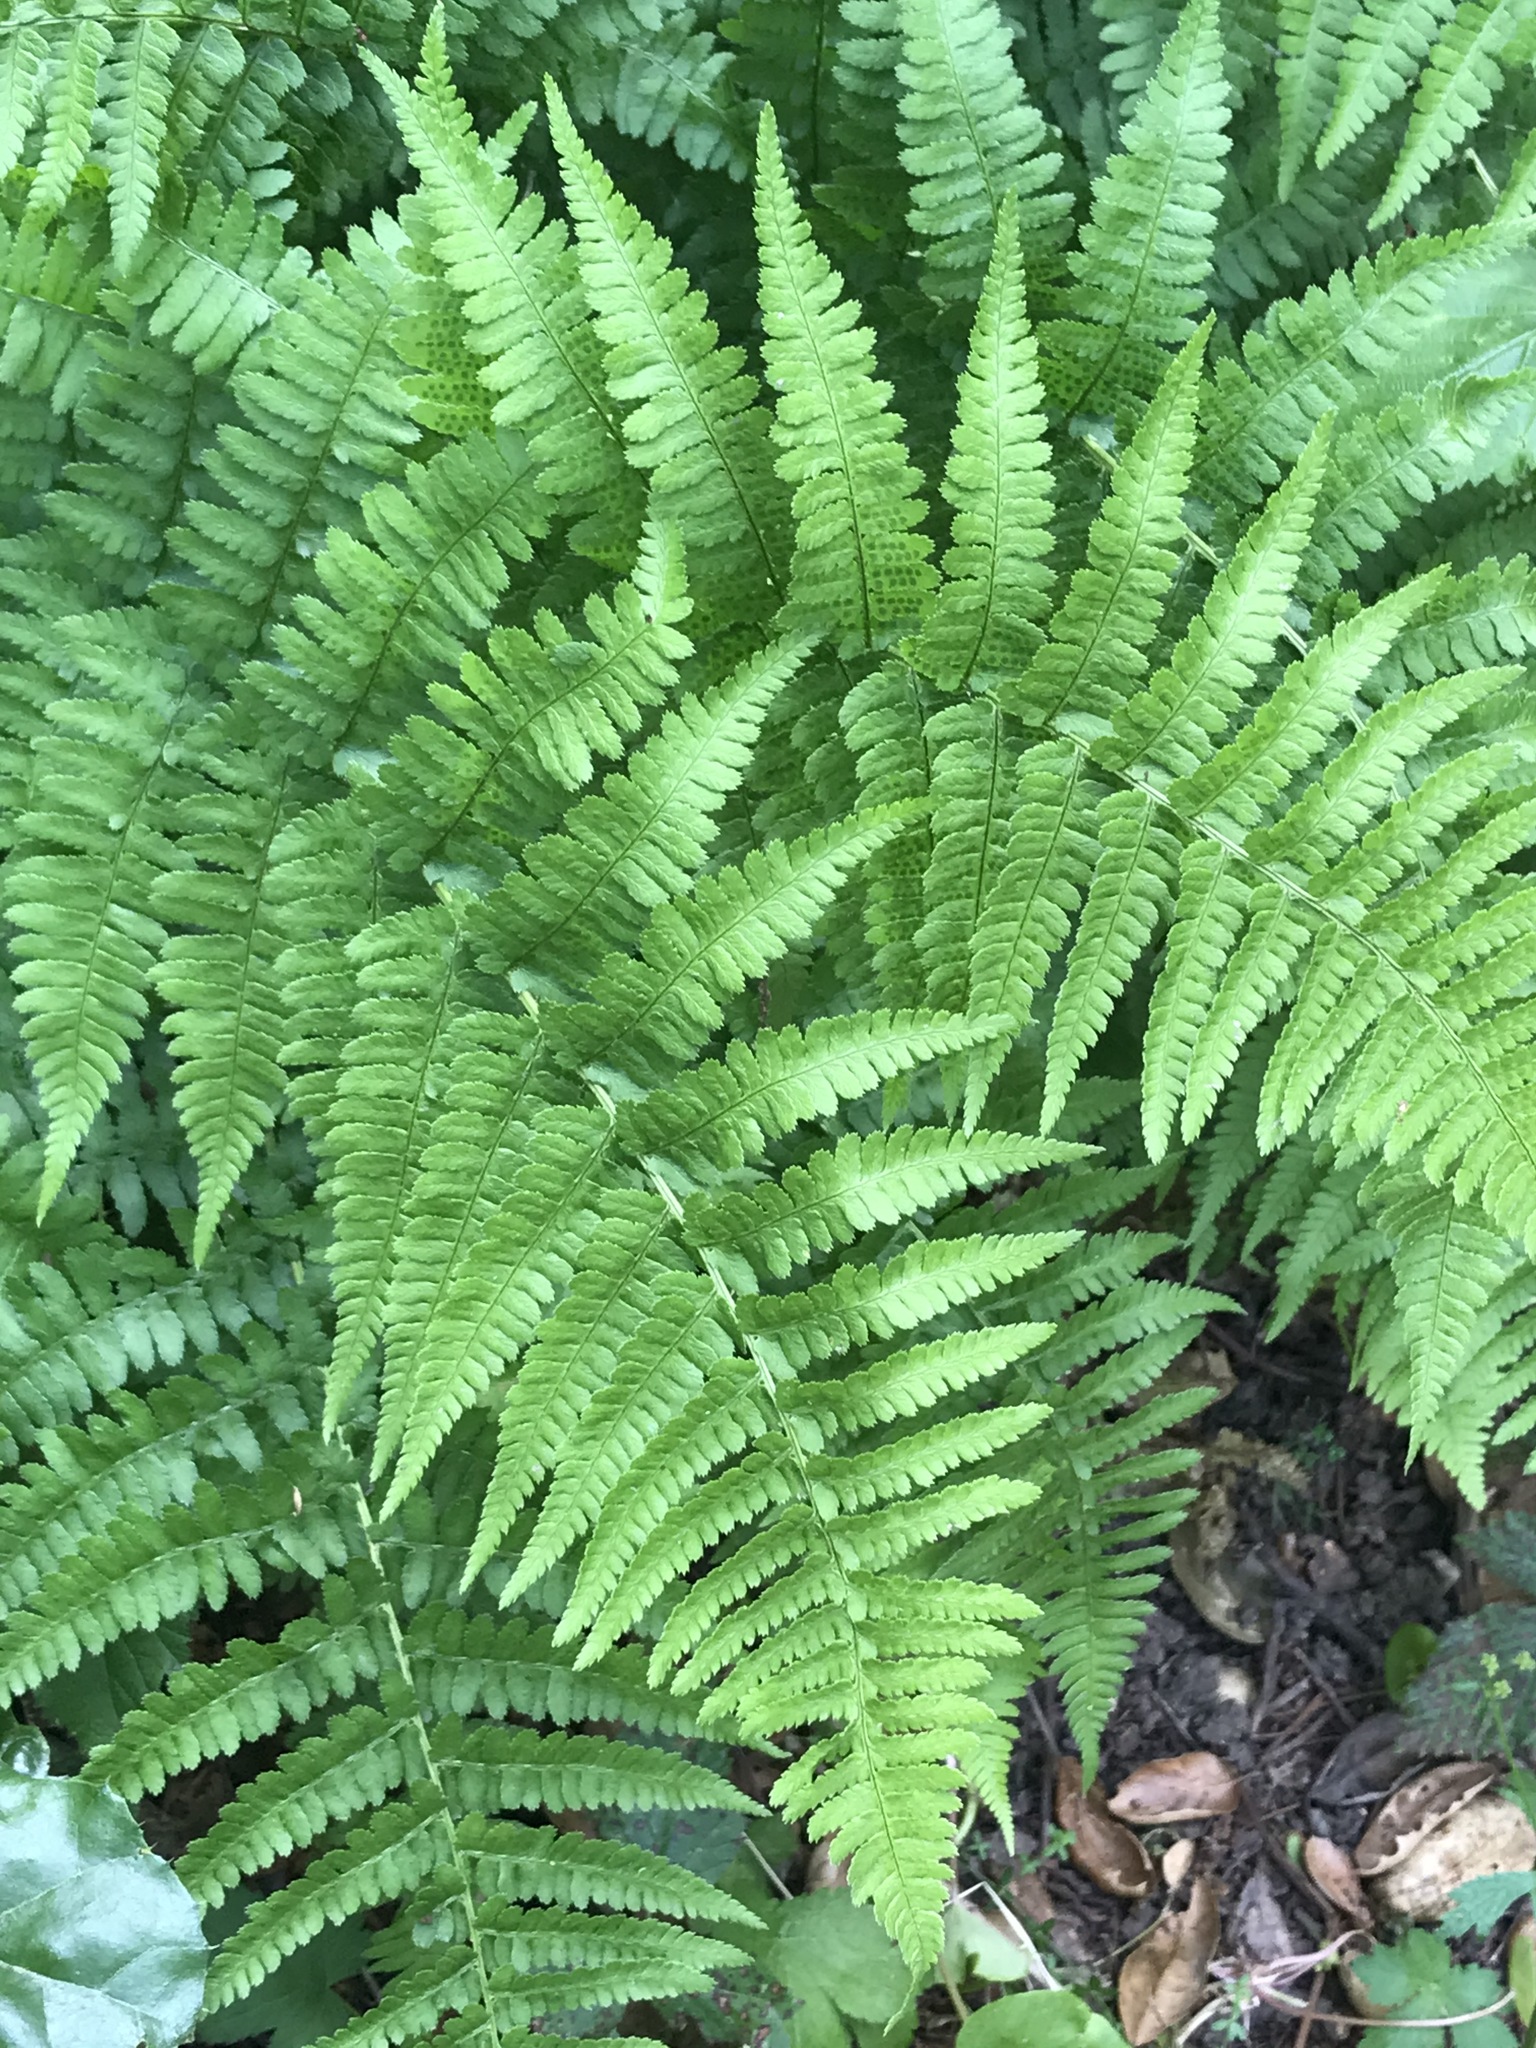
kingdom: Plantae
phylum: Tracheophyta
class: Polypodiopsida
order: Polypodiales
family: Dryopteridaceae
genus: Dryopteris
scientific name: Dryopteris arguta
